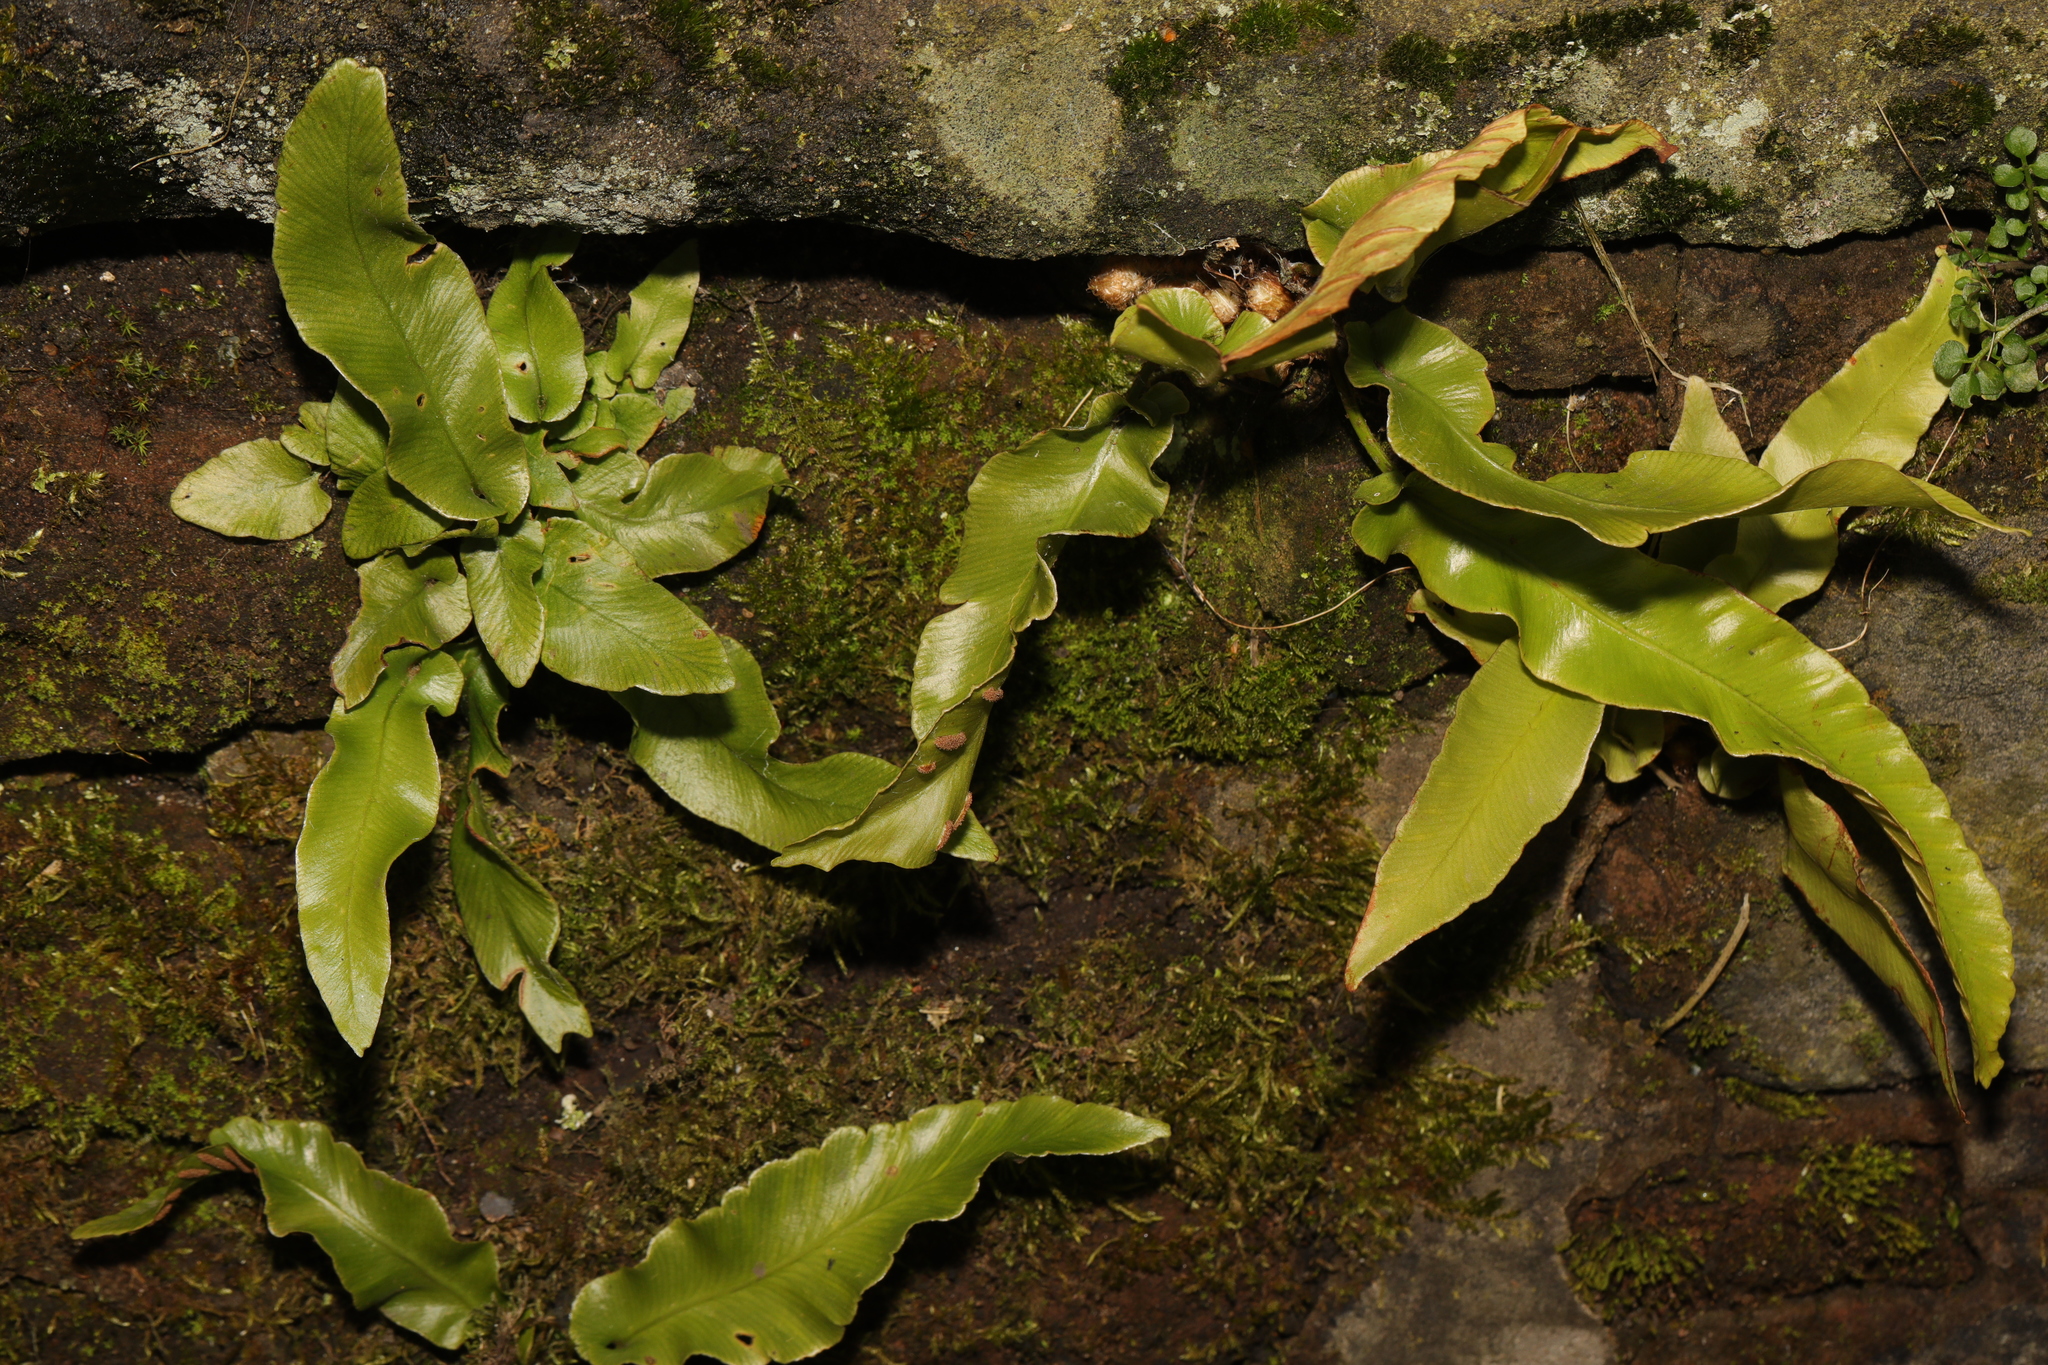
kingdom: Plantae
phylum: Tracheophyta
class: Polypodiopsida
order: Polypodiales
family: Aspleniaceae
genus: Asplenium
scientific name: Asplenium scolopendrium
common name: Hart's-tongue fern
